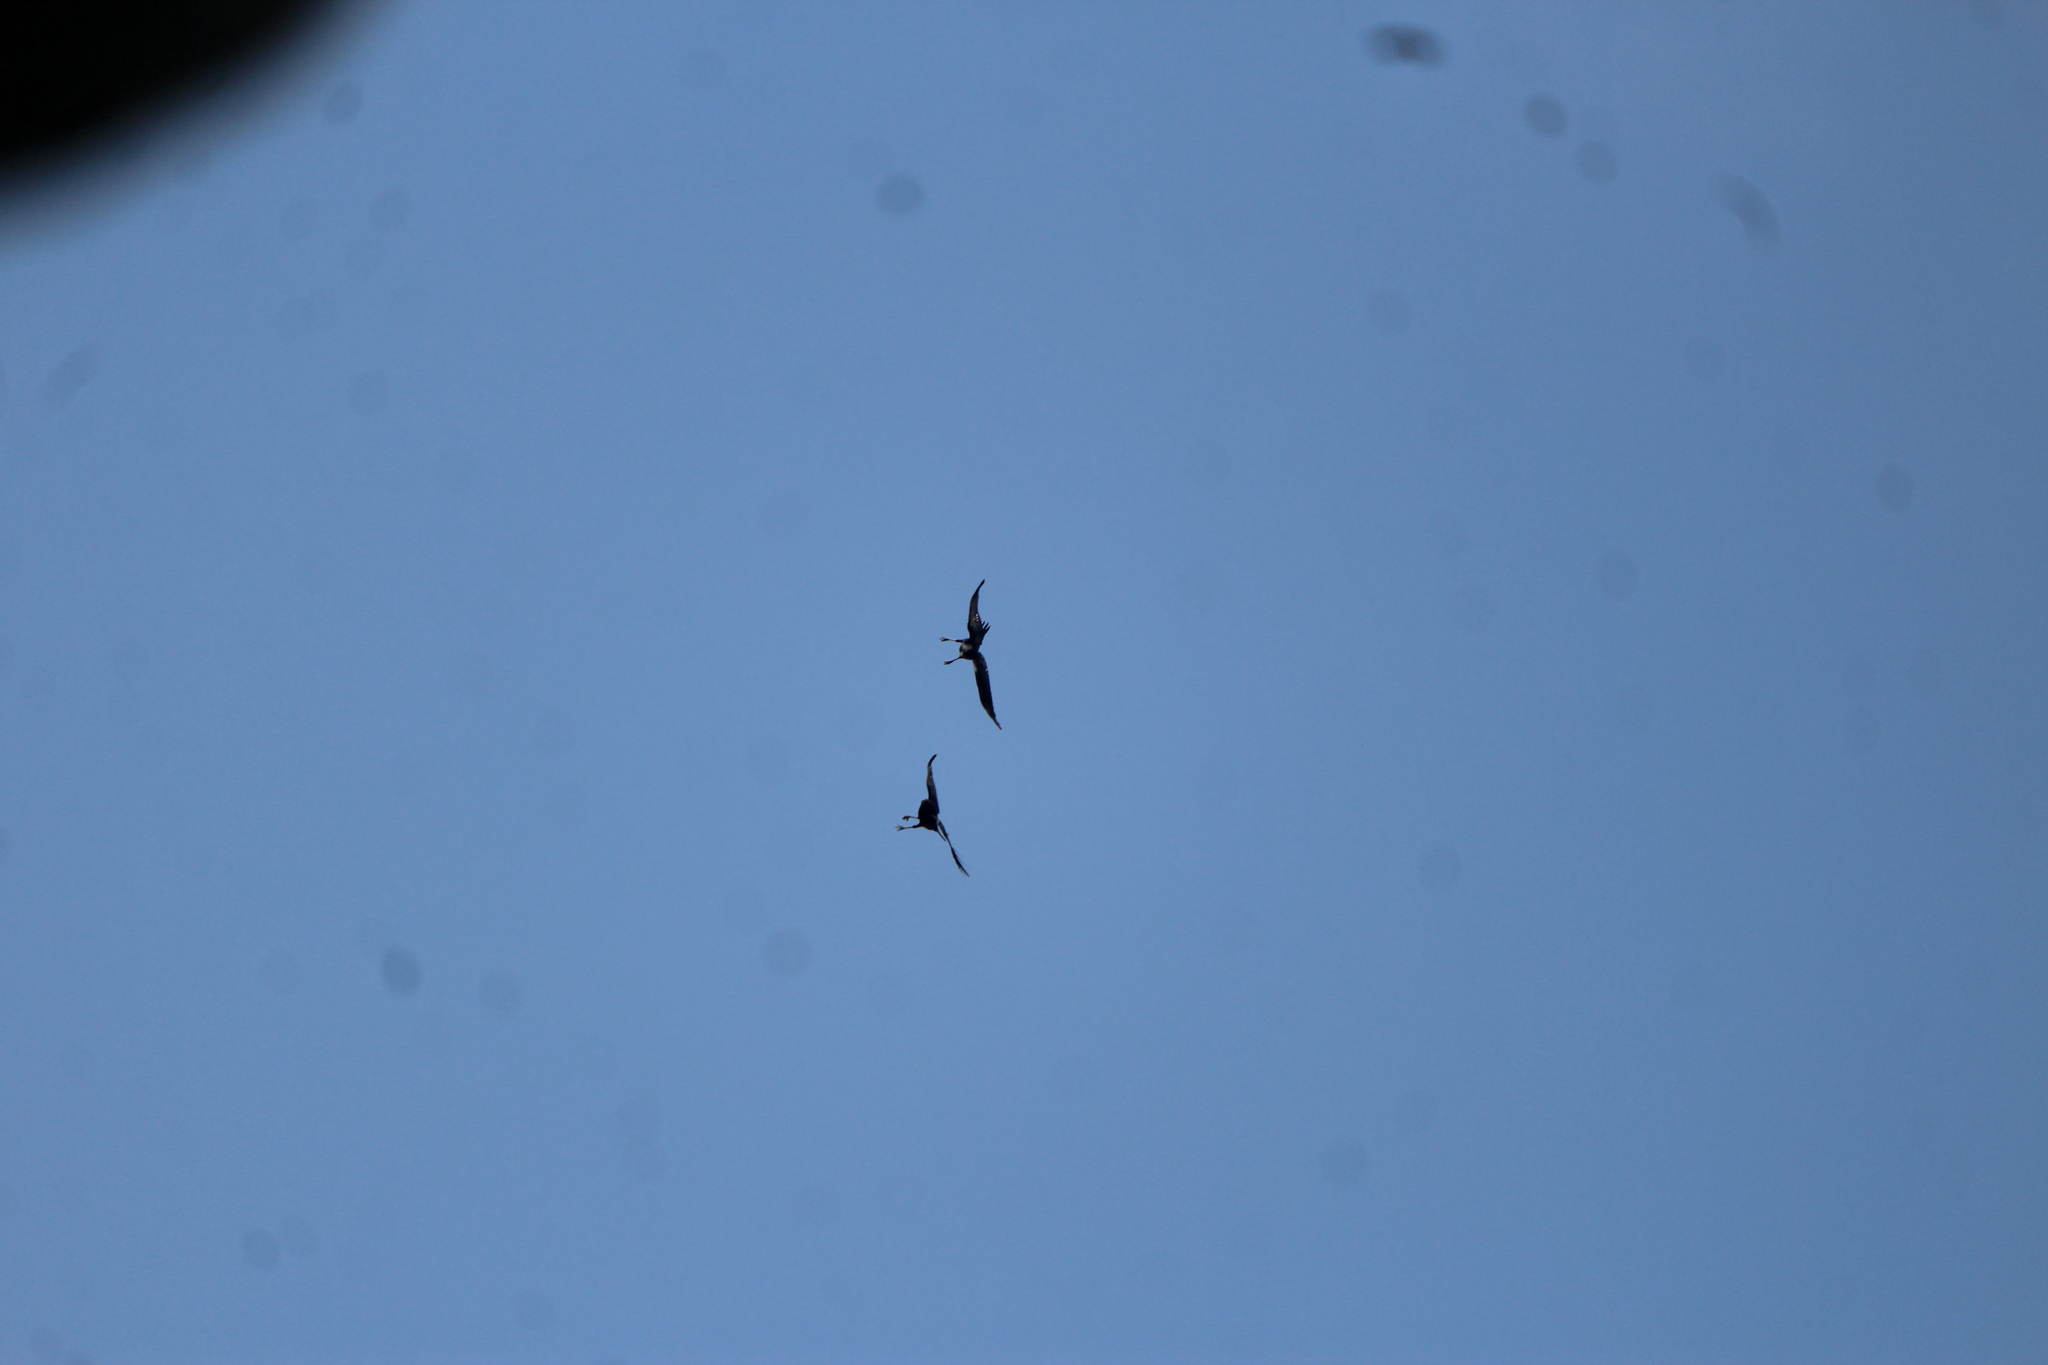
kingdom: Animalia
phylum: Chordata
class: Aves
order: Passeriformes
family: Corvidae
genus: Corvus
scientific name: Corvus corax
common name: Common raven
